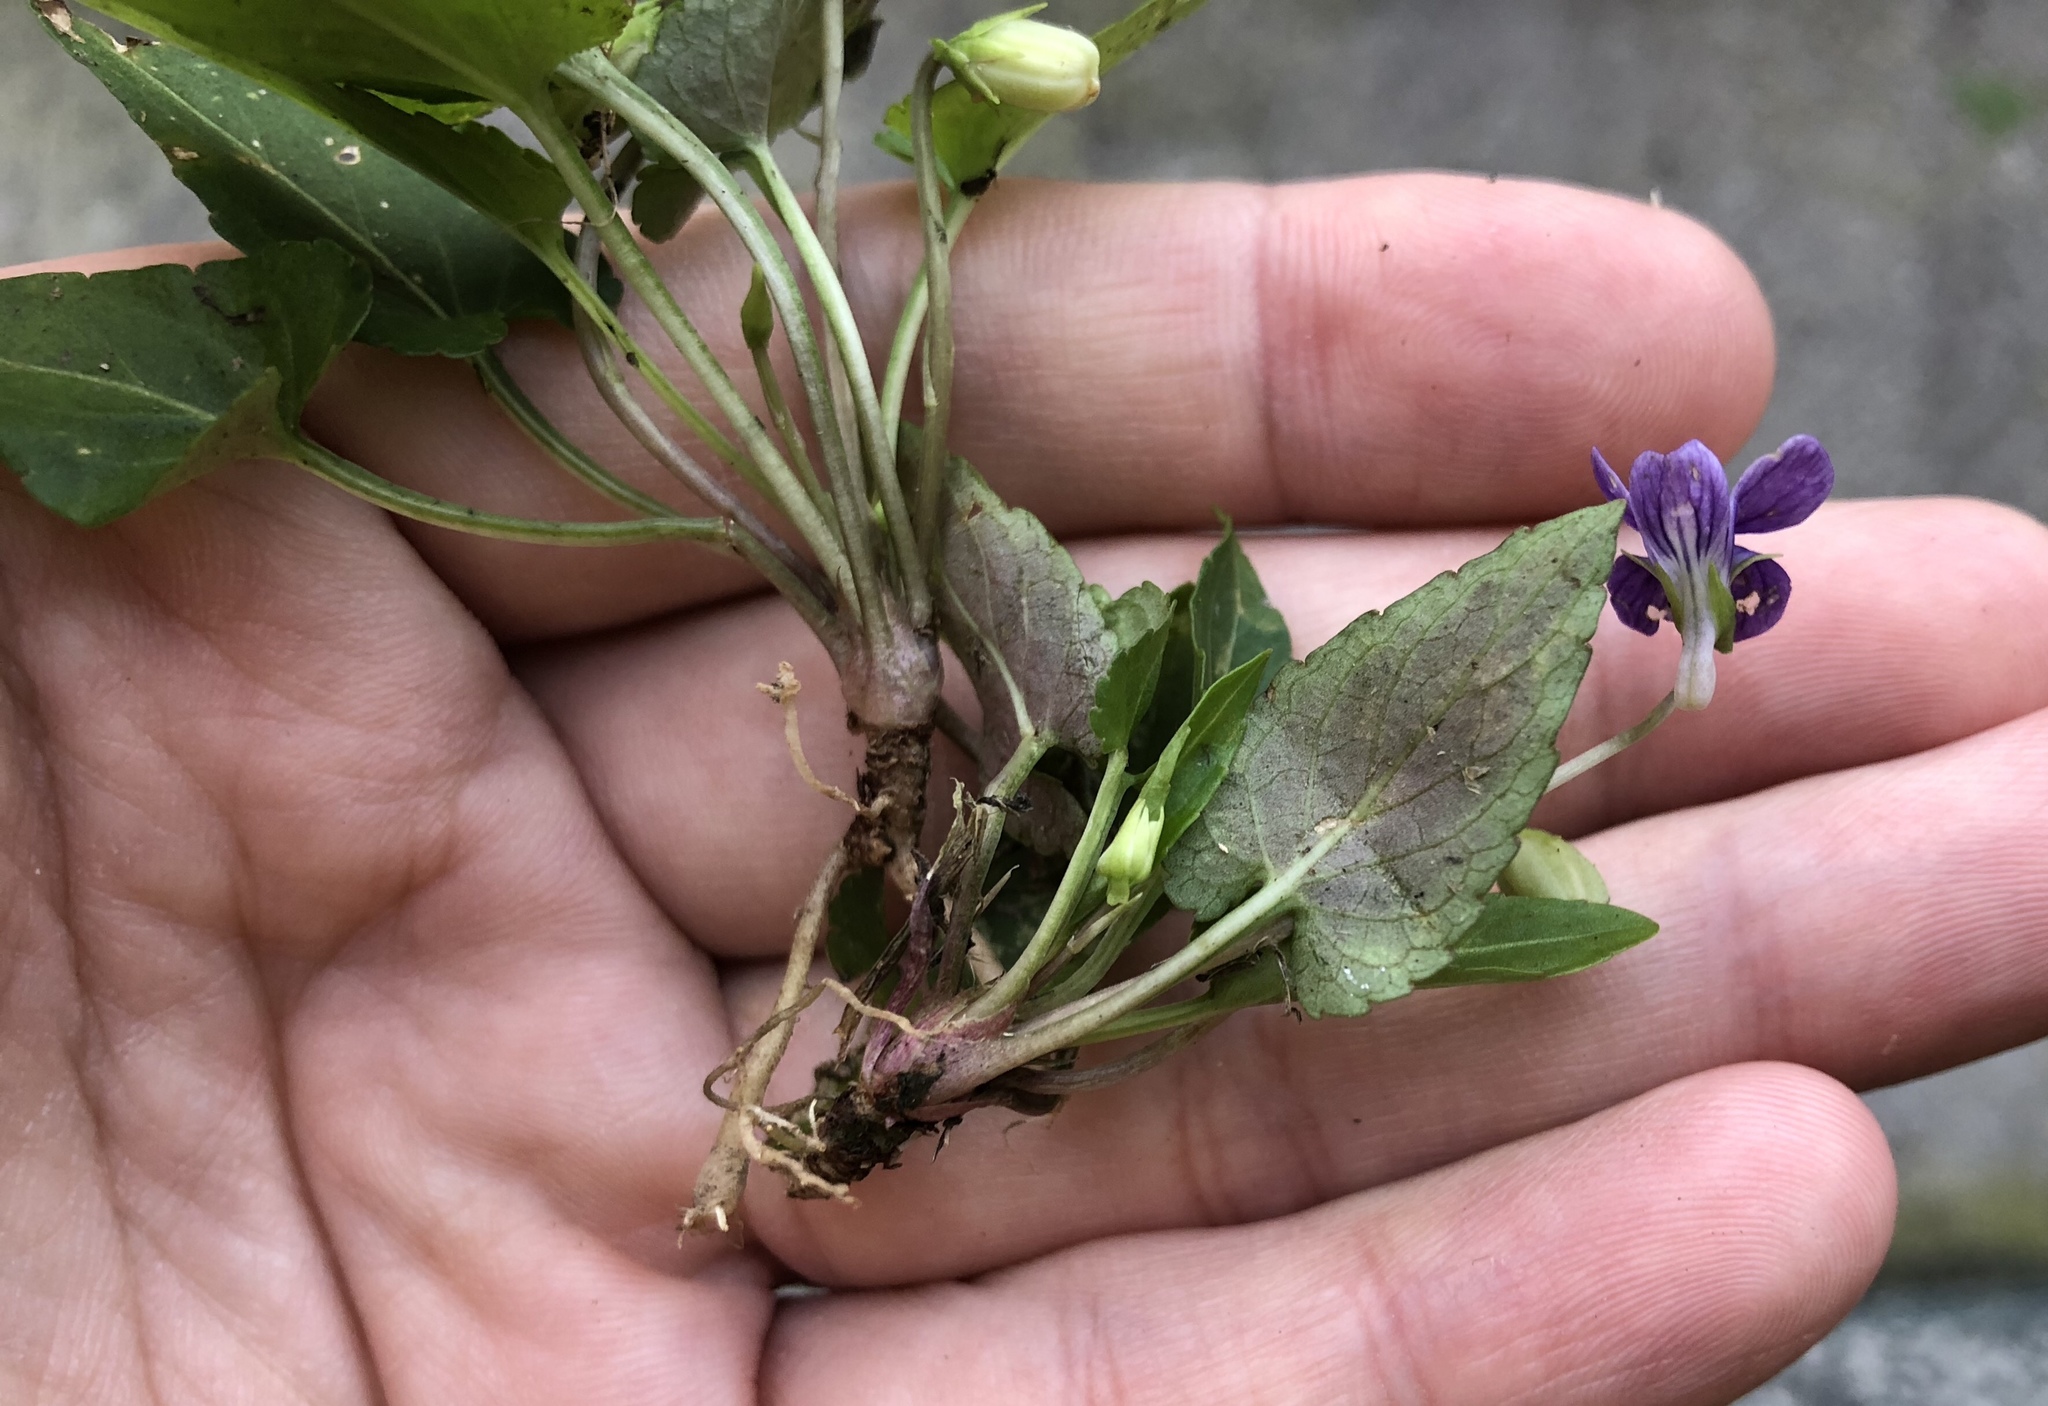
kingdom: Plantae
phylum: Tracheophyta
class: Magnoliopsida
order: Malpighiales
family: Violaceae
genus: Viola
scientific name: Viola inconspicua
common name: Long sepal violet
